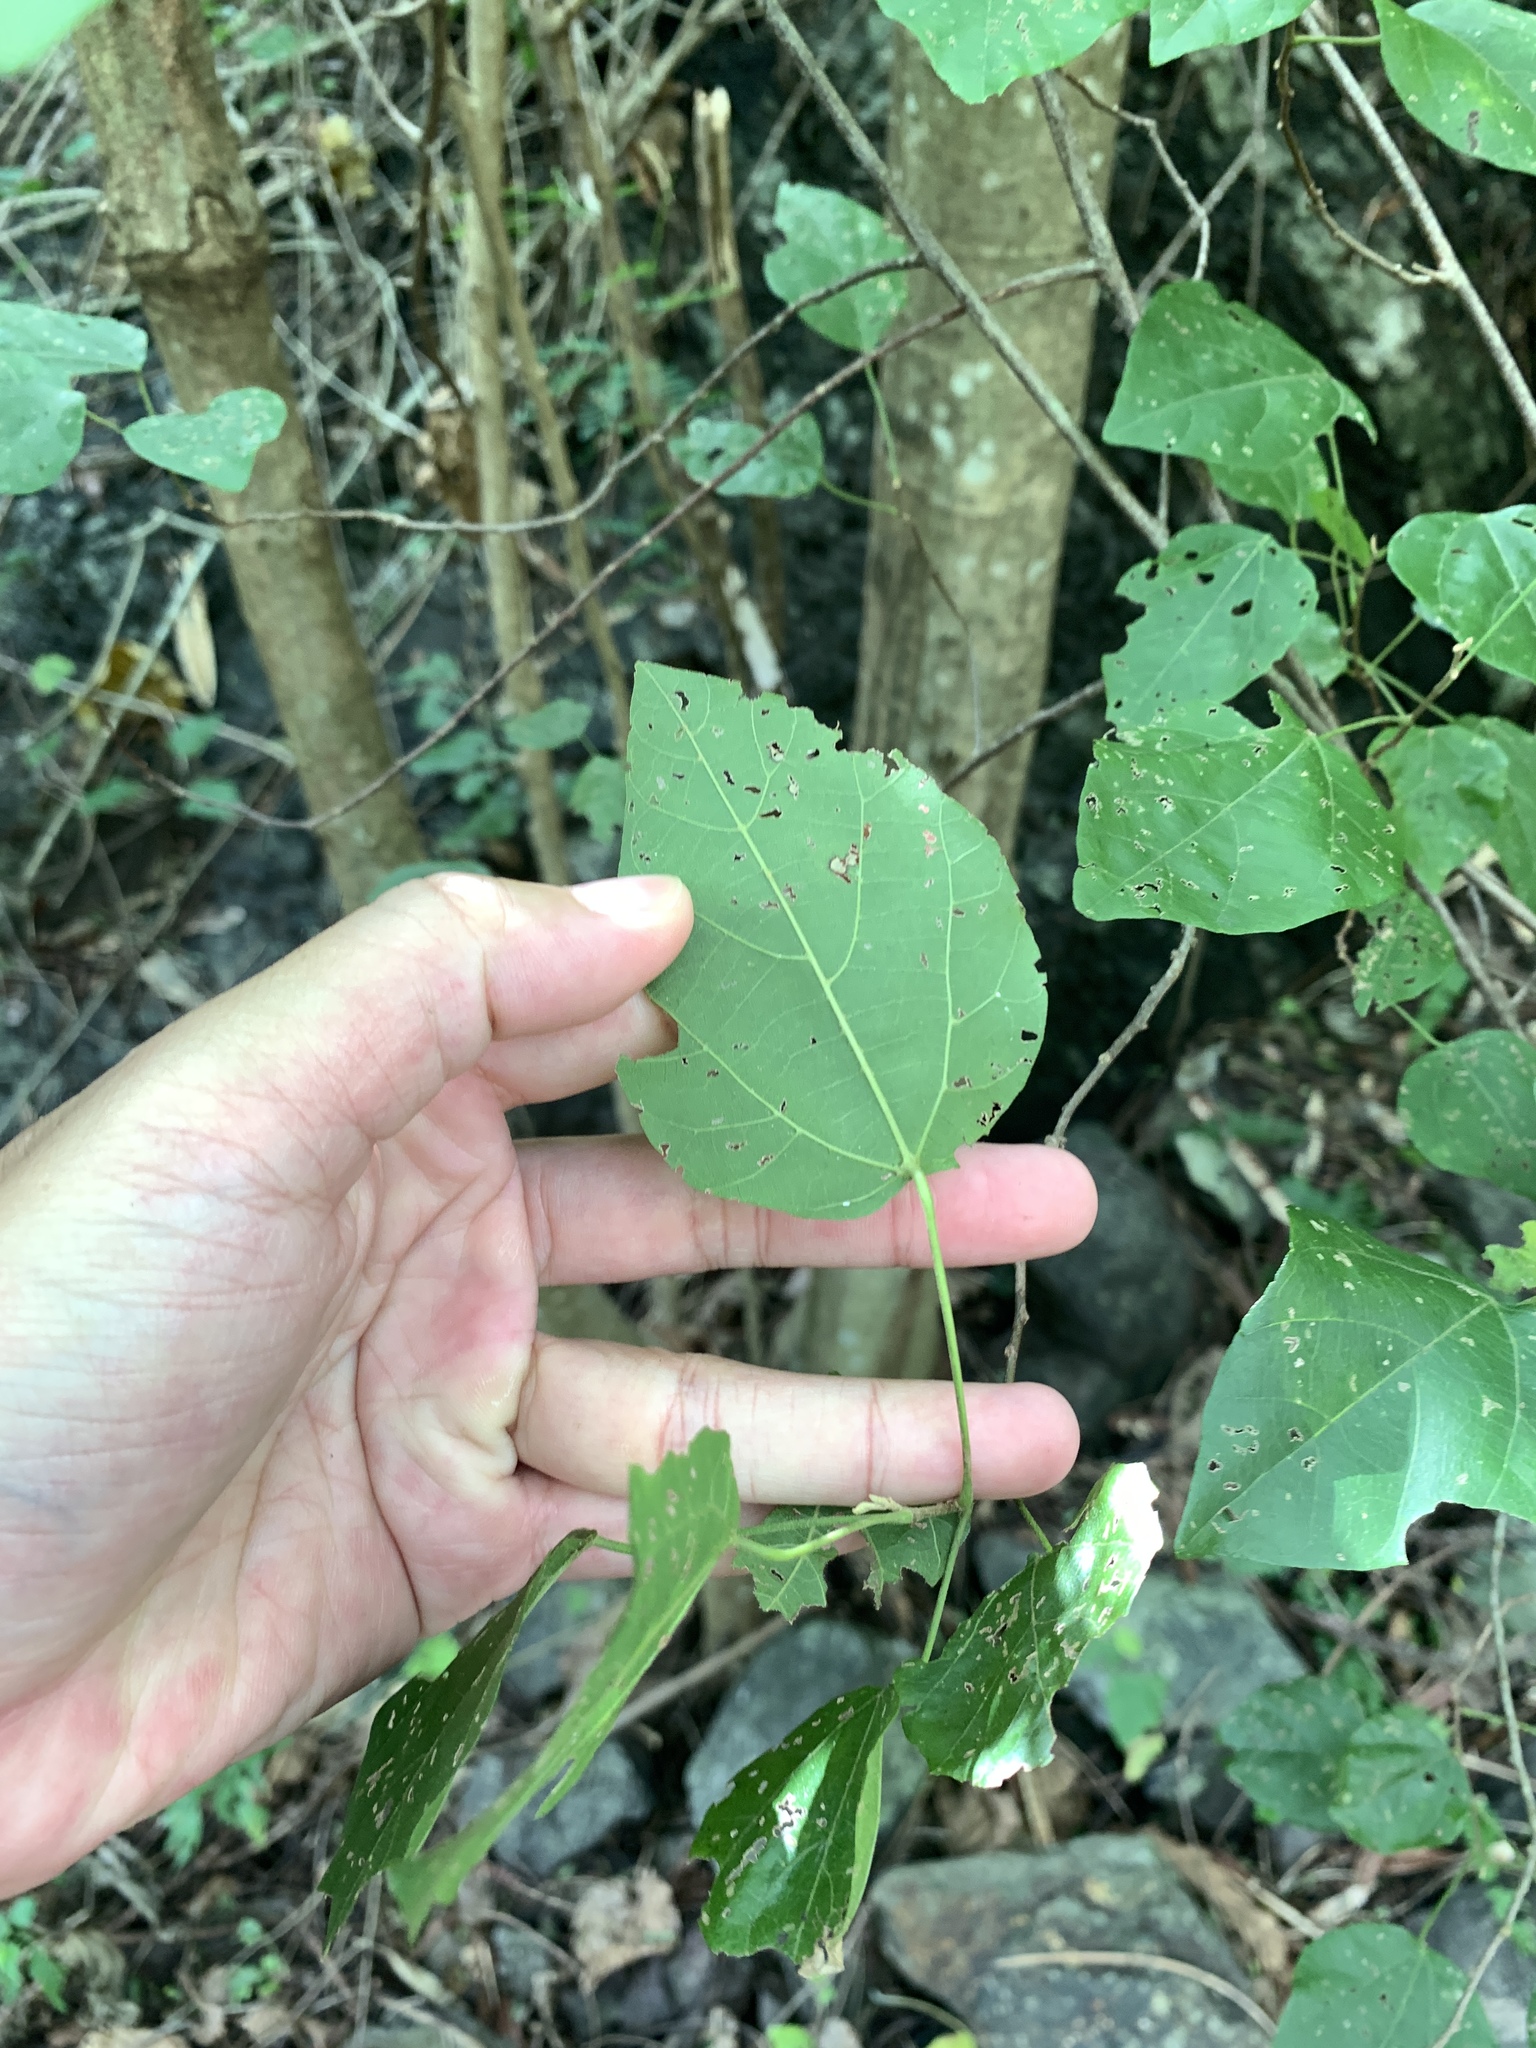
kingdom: Plantae
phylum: Tracheophyta
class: Magnoliopsida
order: Malpighiales
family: Euphorbiaceae
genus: Mallotus
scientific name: Mallotus repandus
